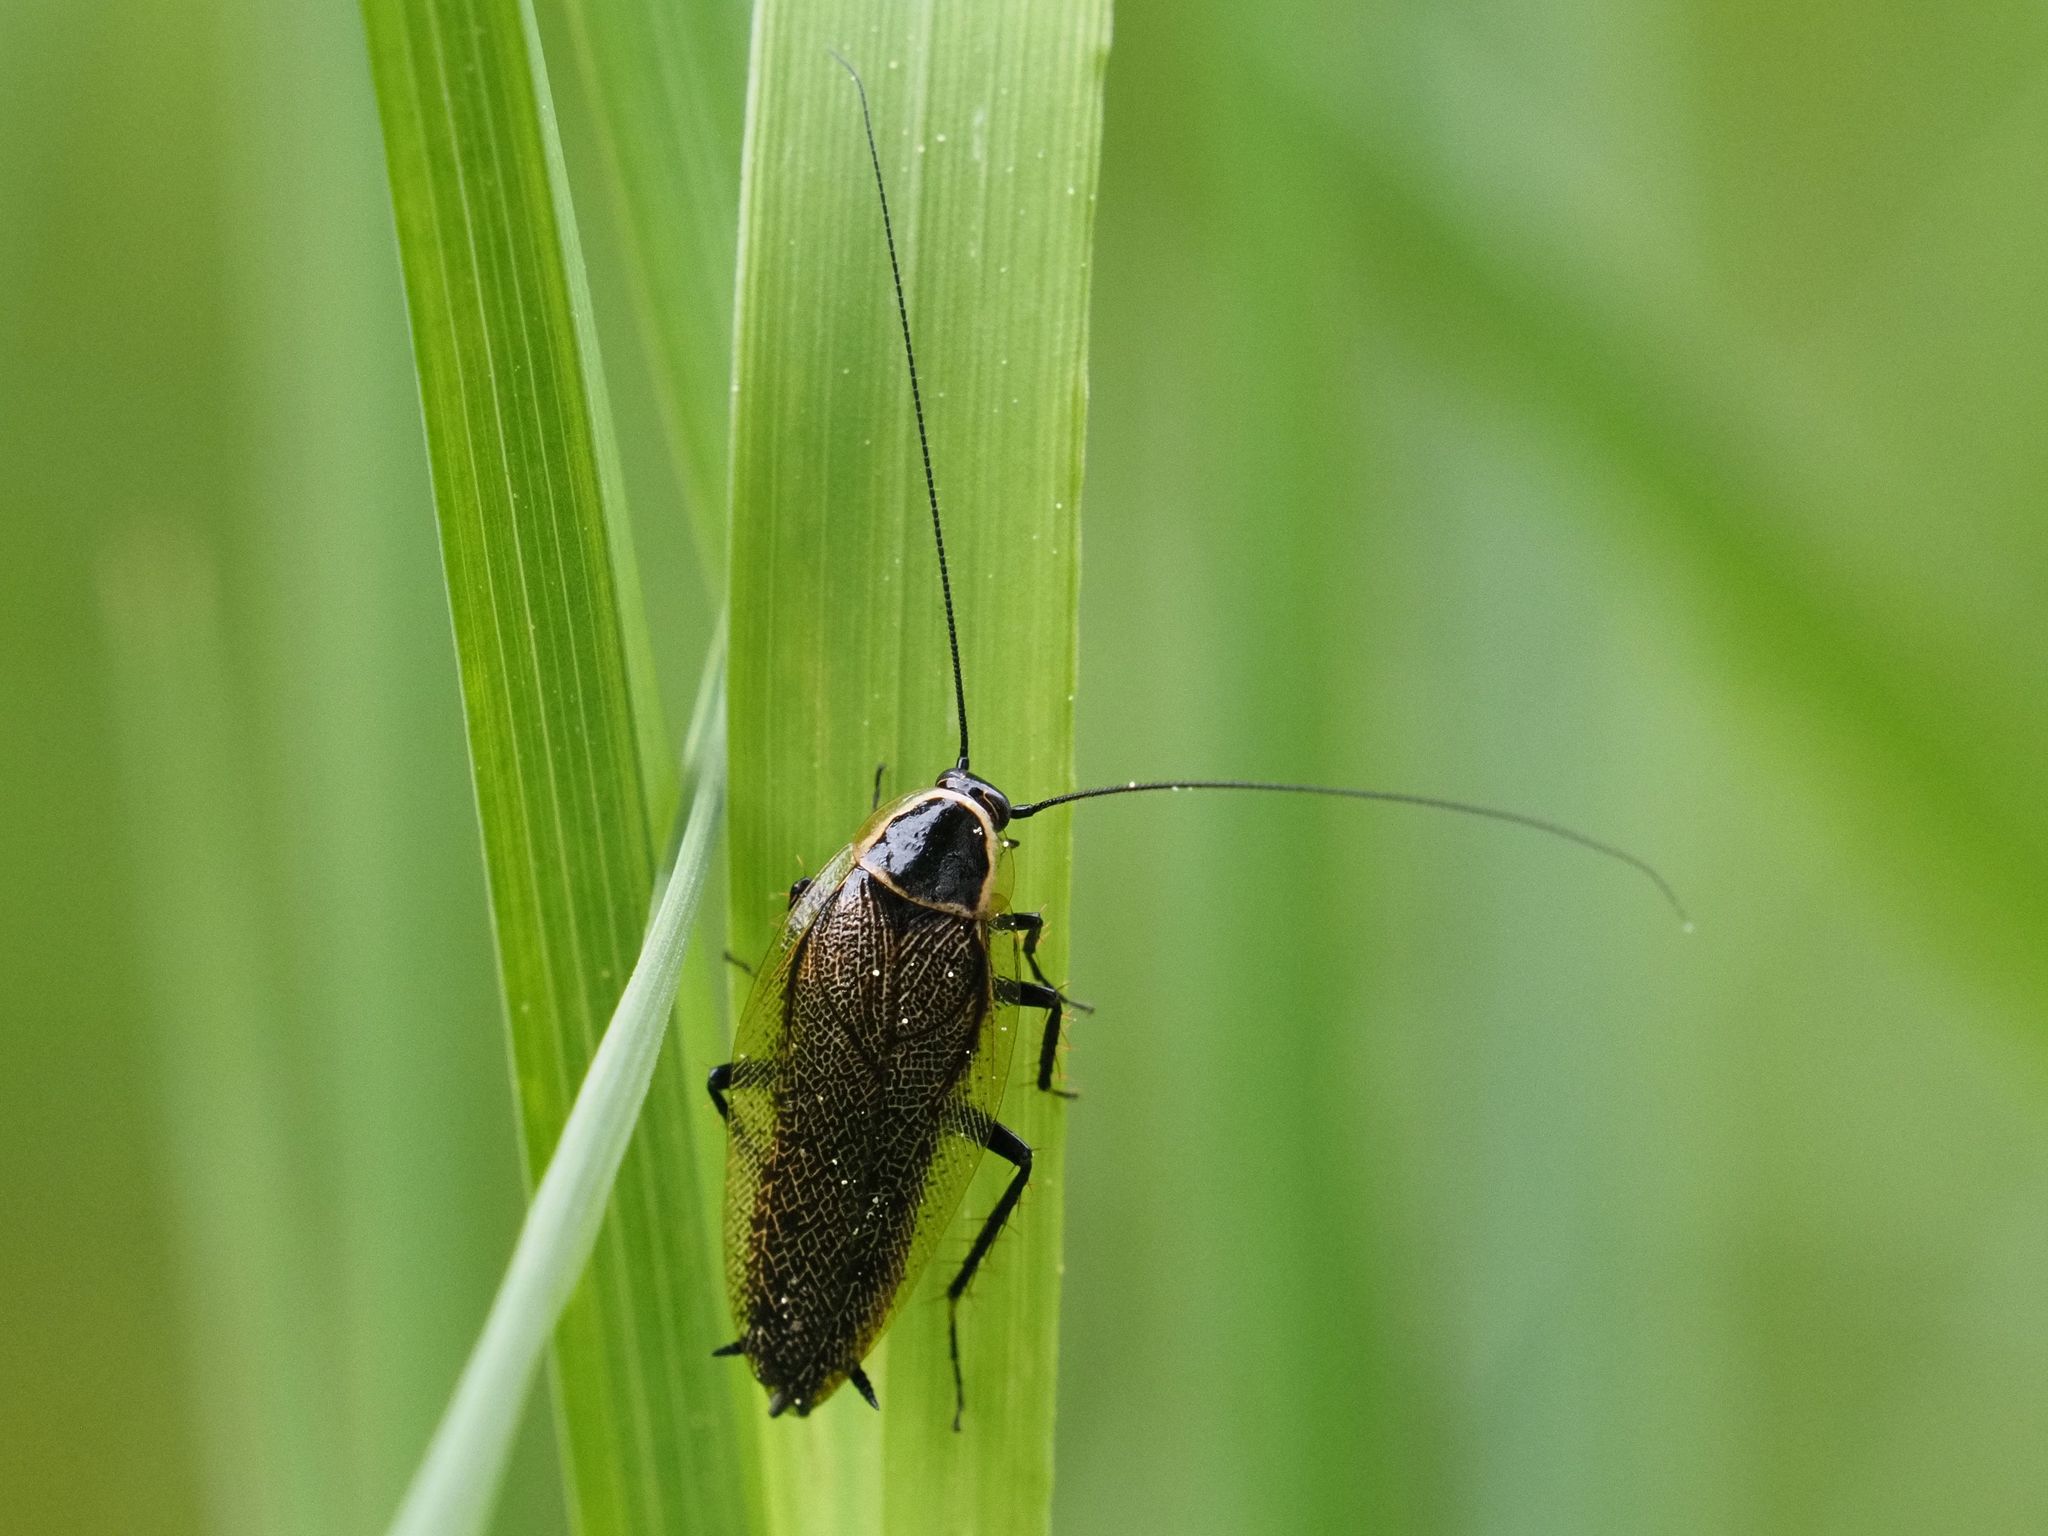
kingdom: Animalia
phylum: Arthropoda
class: Insecta
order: Blattodea
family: Ectobiidae
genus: Ectobius
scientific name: Ectobius sylvestris
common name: Forest cockroach
